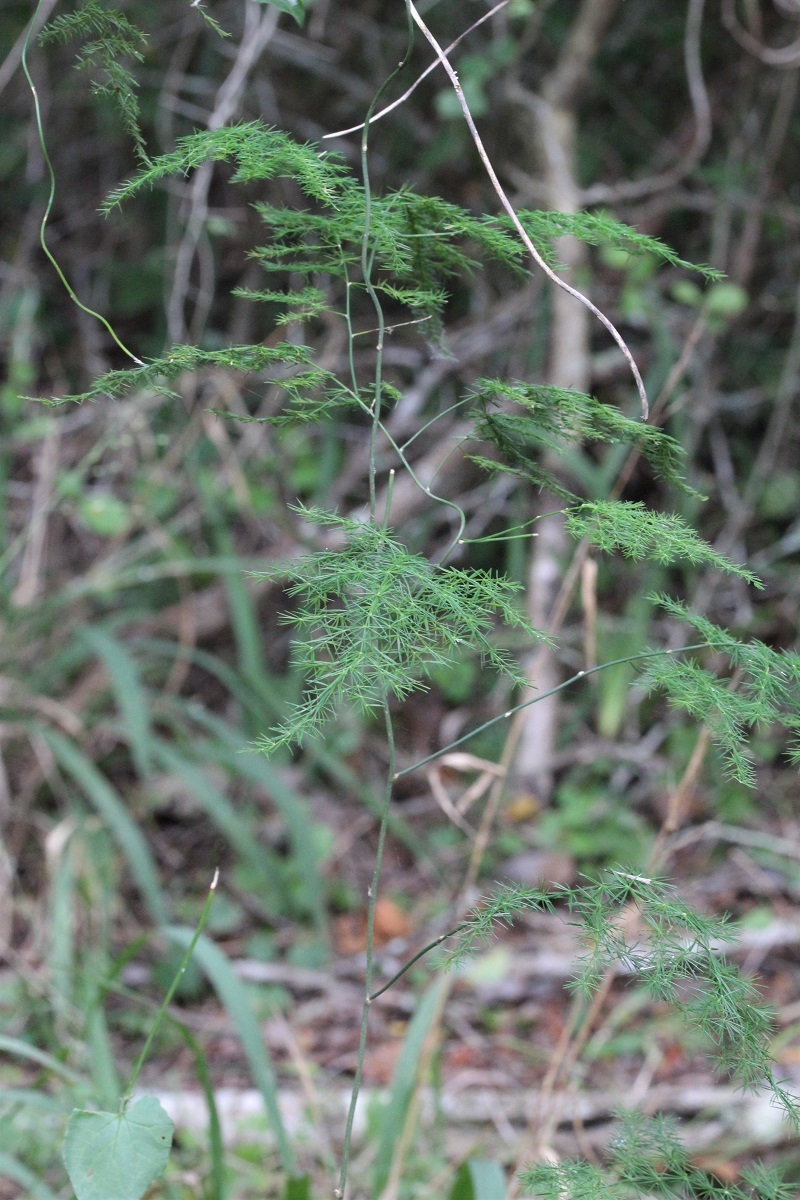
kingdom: Plantae
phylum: Tracheophyta
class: Liliopsida
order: Asparagales
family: Asparagaceae
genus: Asparagus
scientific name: Asparagus setaceus
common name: Common asparagus fern
